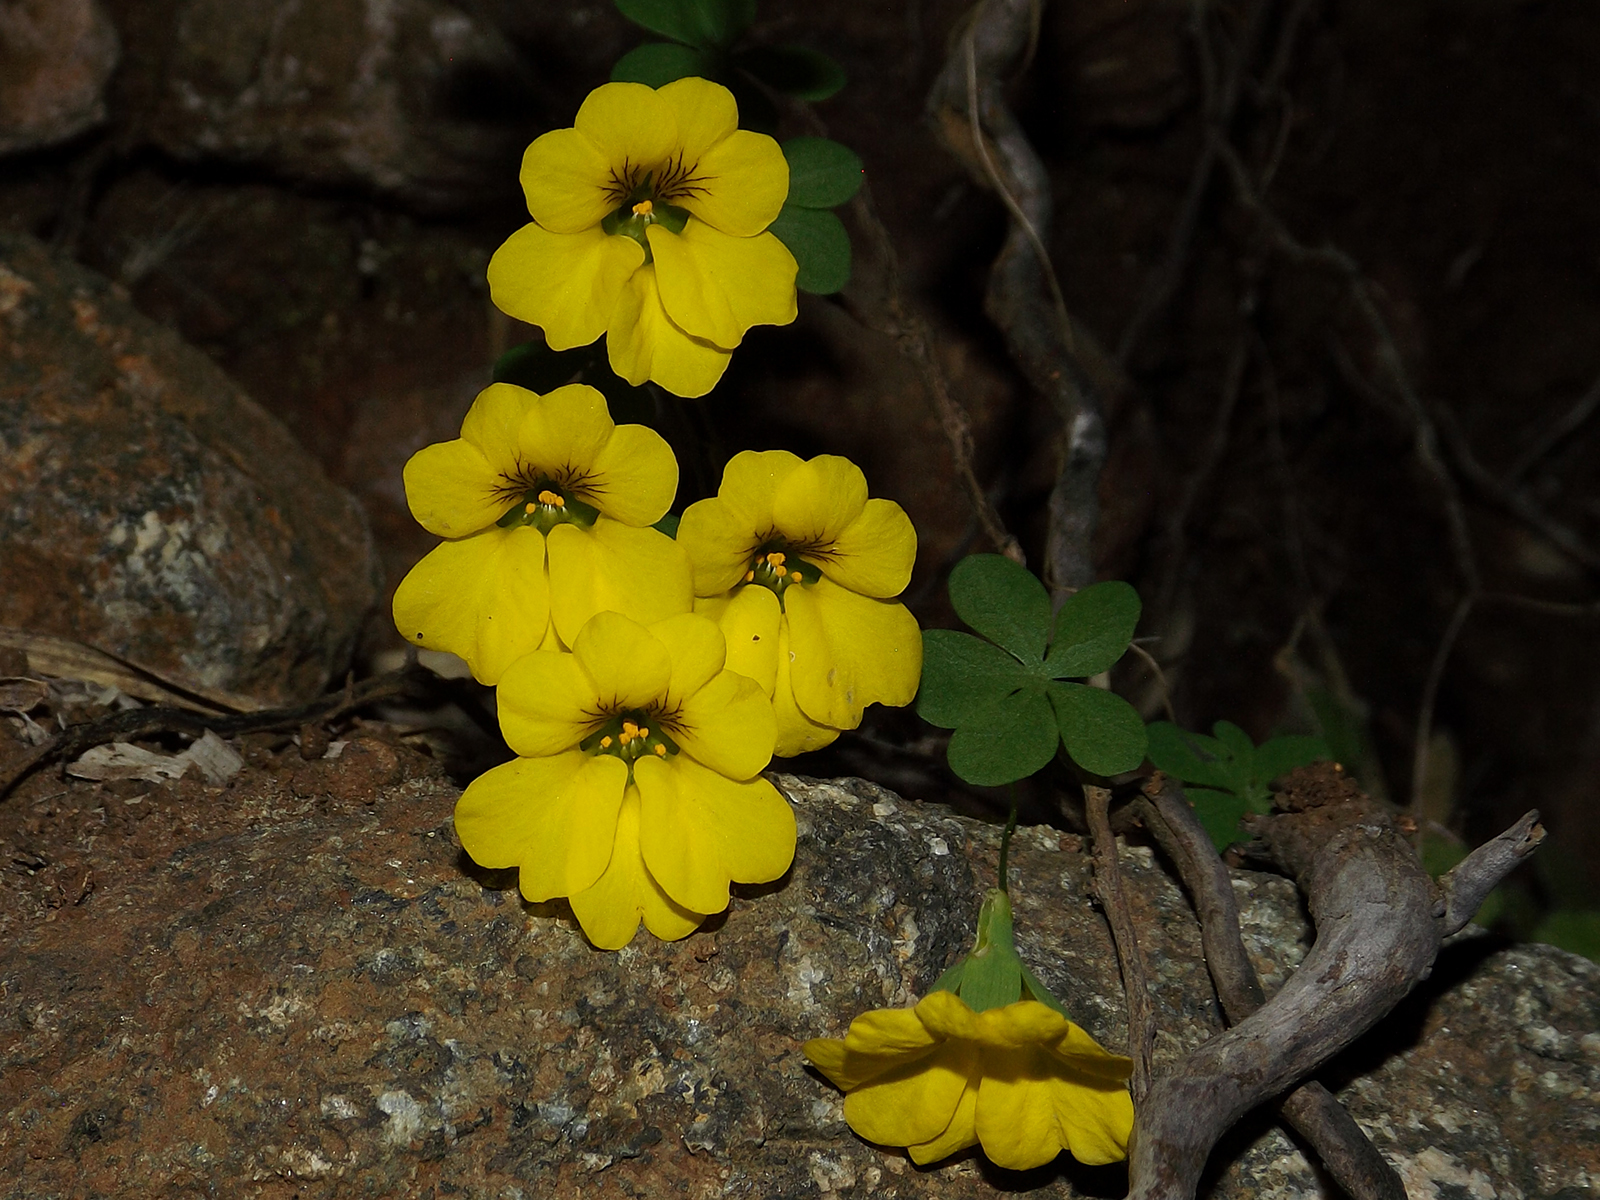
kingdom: Plantae
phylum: Tracheophyta
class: Magnoliopsida
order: Brassicales
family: Tropaeolaceae
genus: Tropaeolum
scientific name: Tropaeolum brachyceras
